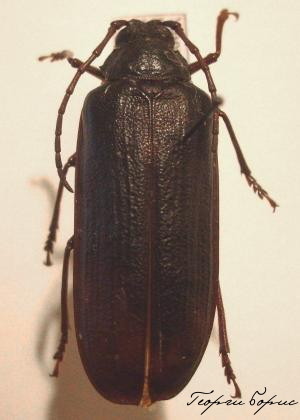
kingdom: Animalia
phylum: Arthropoda
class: Insecta
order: Coleoptera
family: Cerambycidae
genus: Tragosoma
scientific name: Tragosoma depsarium
